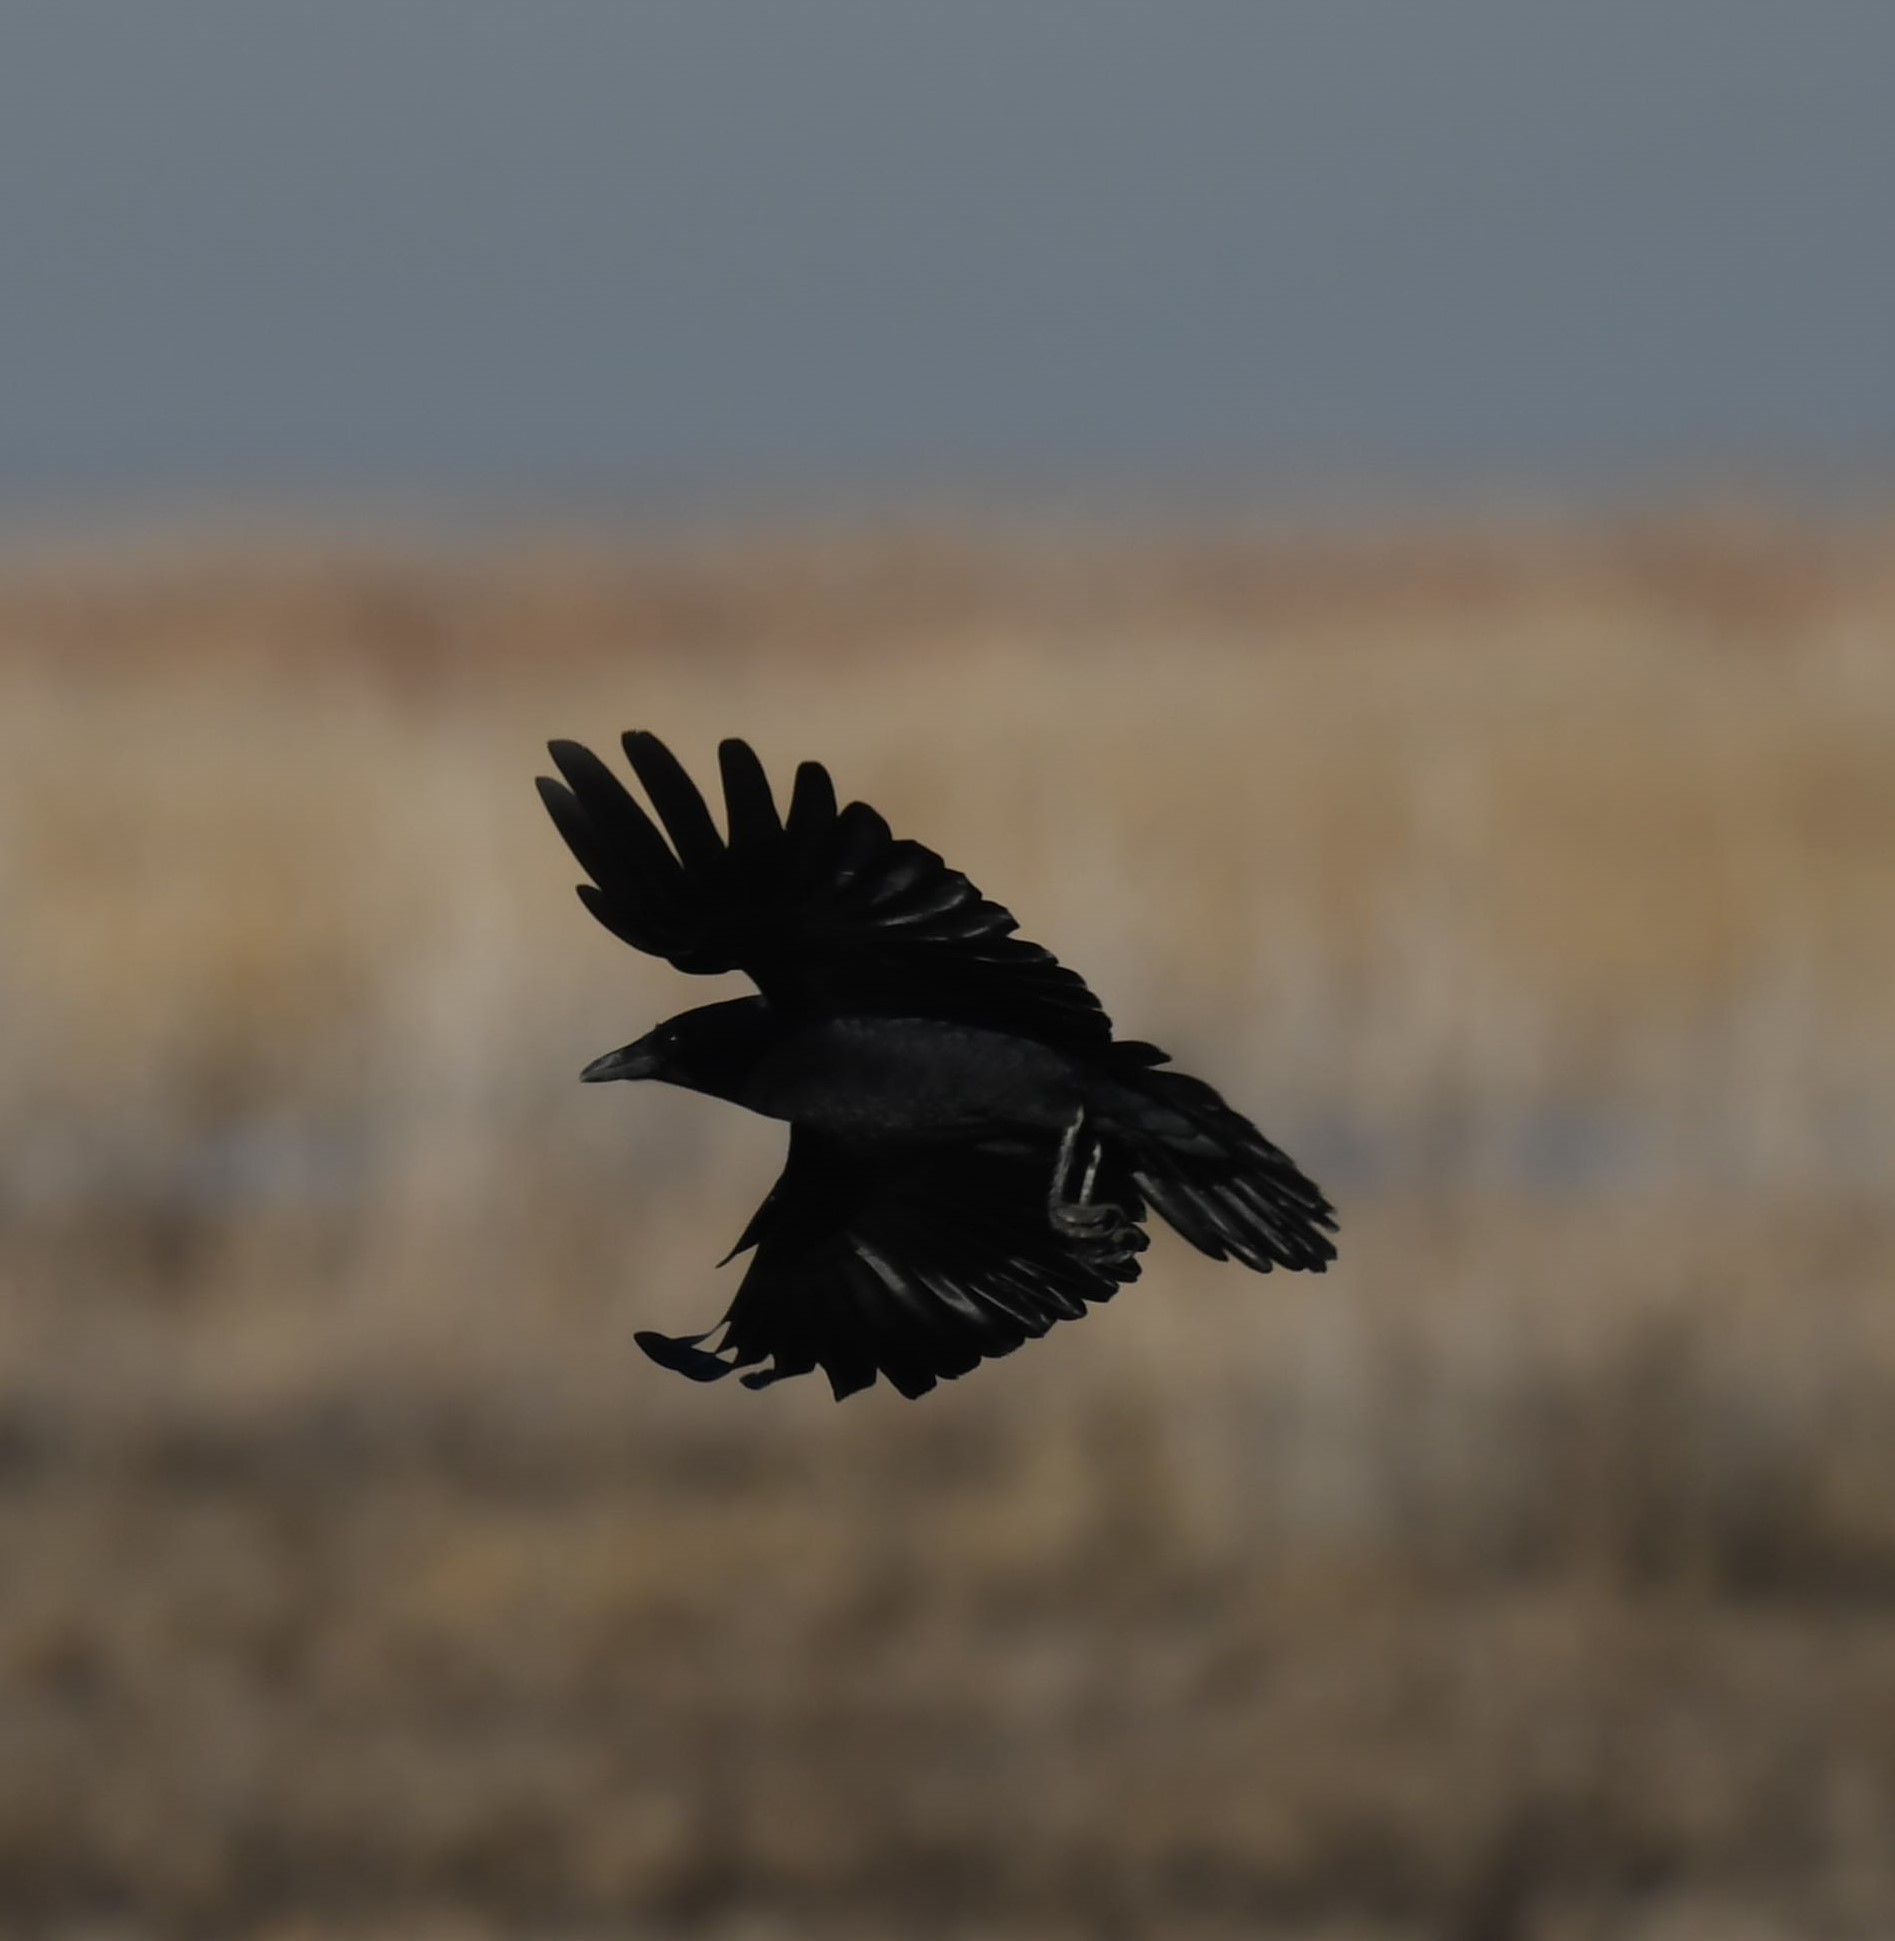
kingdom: Animalia
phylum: Chordata
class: Aves
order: Passeriformes
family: Corvidae
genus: Corvus
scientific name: Corvus brachyrhynchos
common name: American crow
